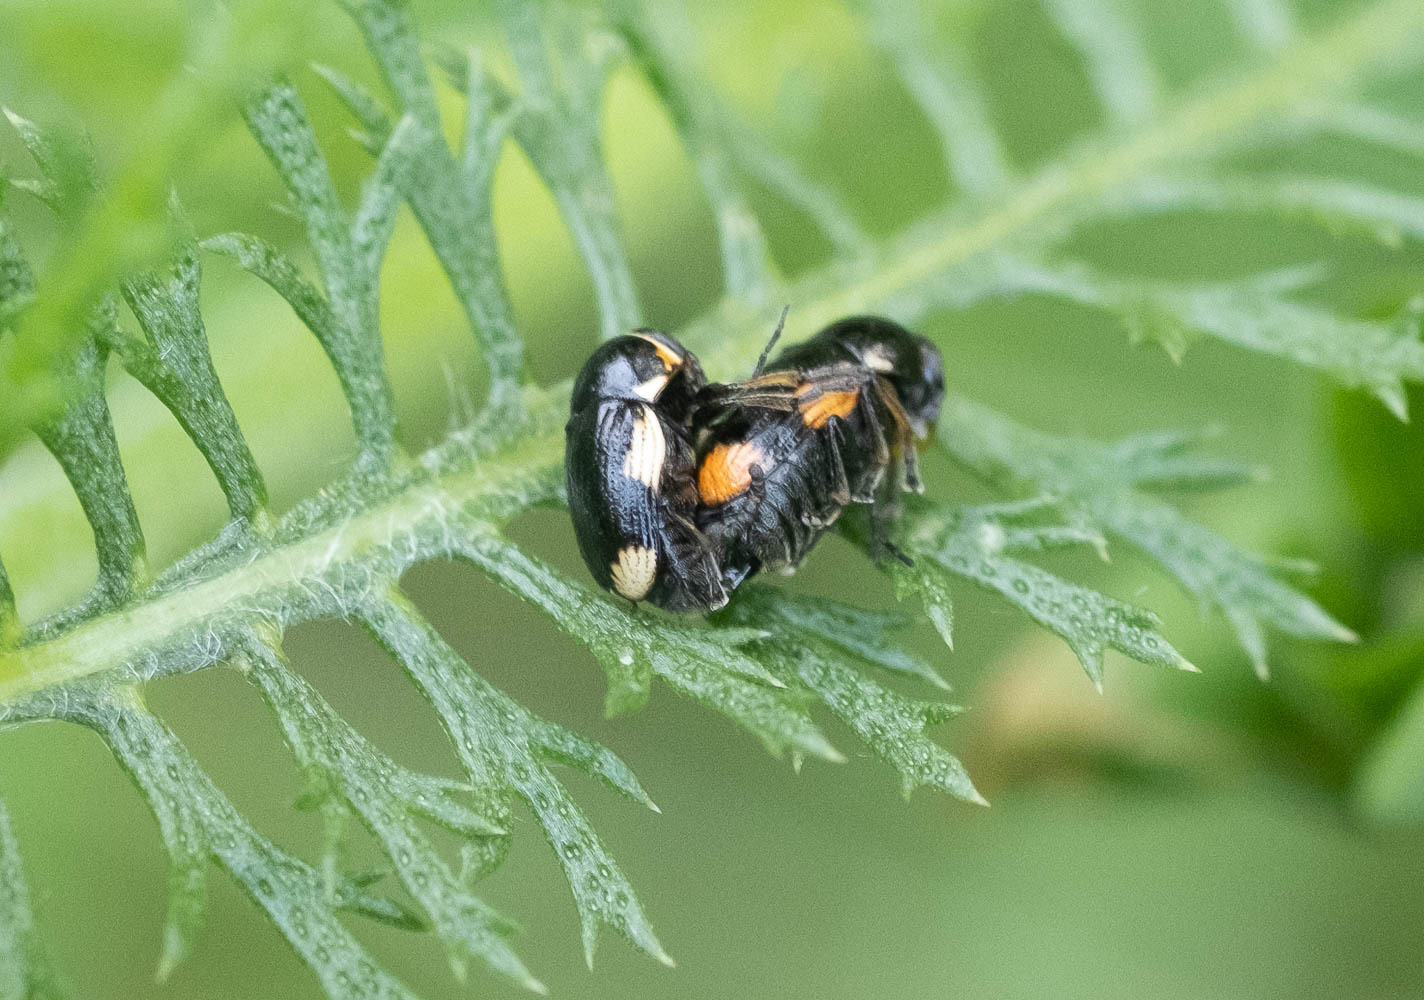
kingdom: Animalia
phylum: Arthropoda
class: Insecta
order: Coleoptera
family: Chrysomelidae
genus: Cryptocephalus
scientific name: Cryptocephalus moraei
